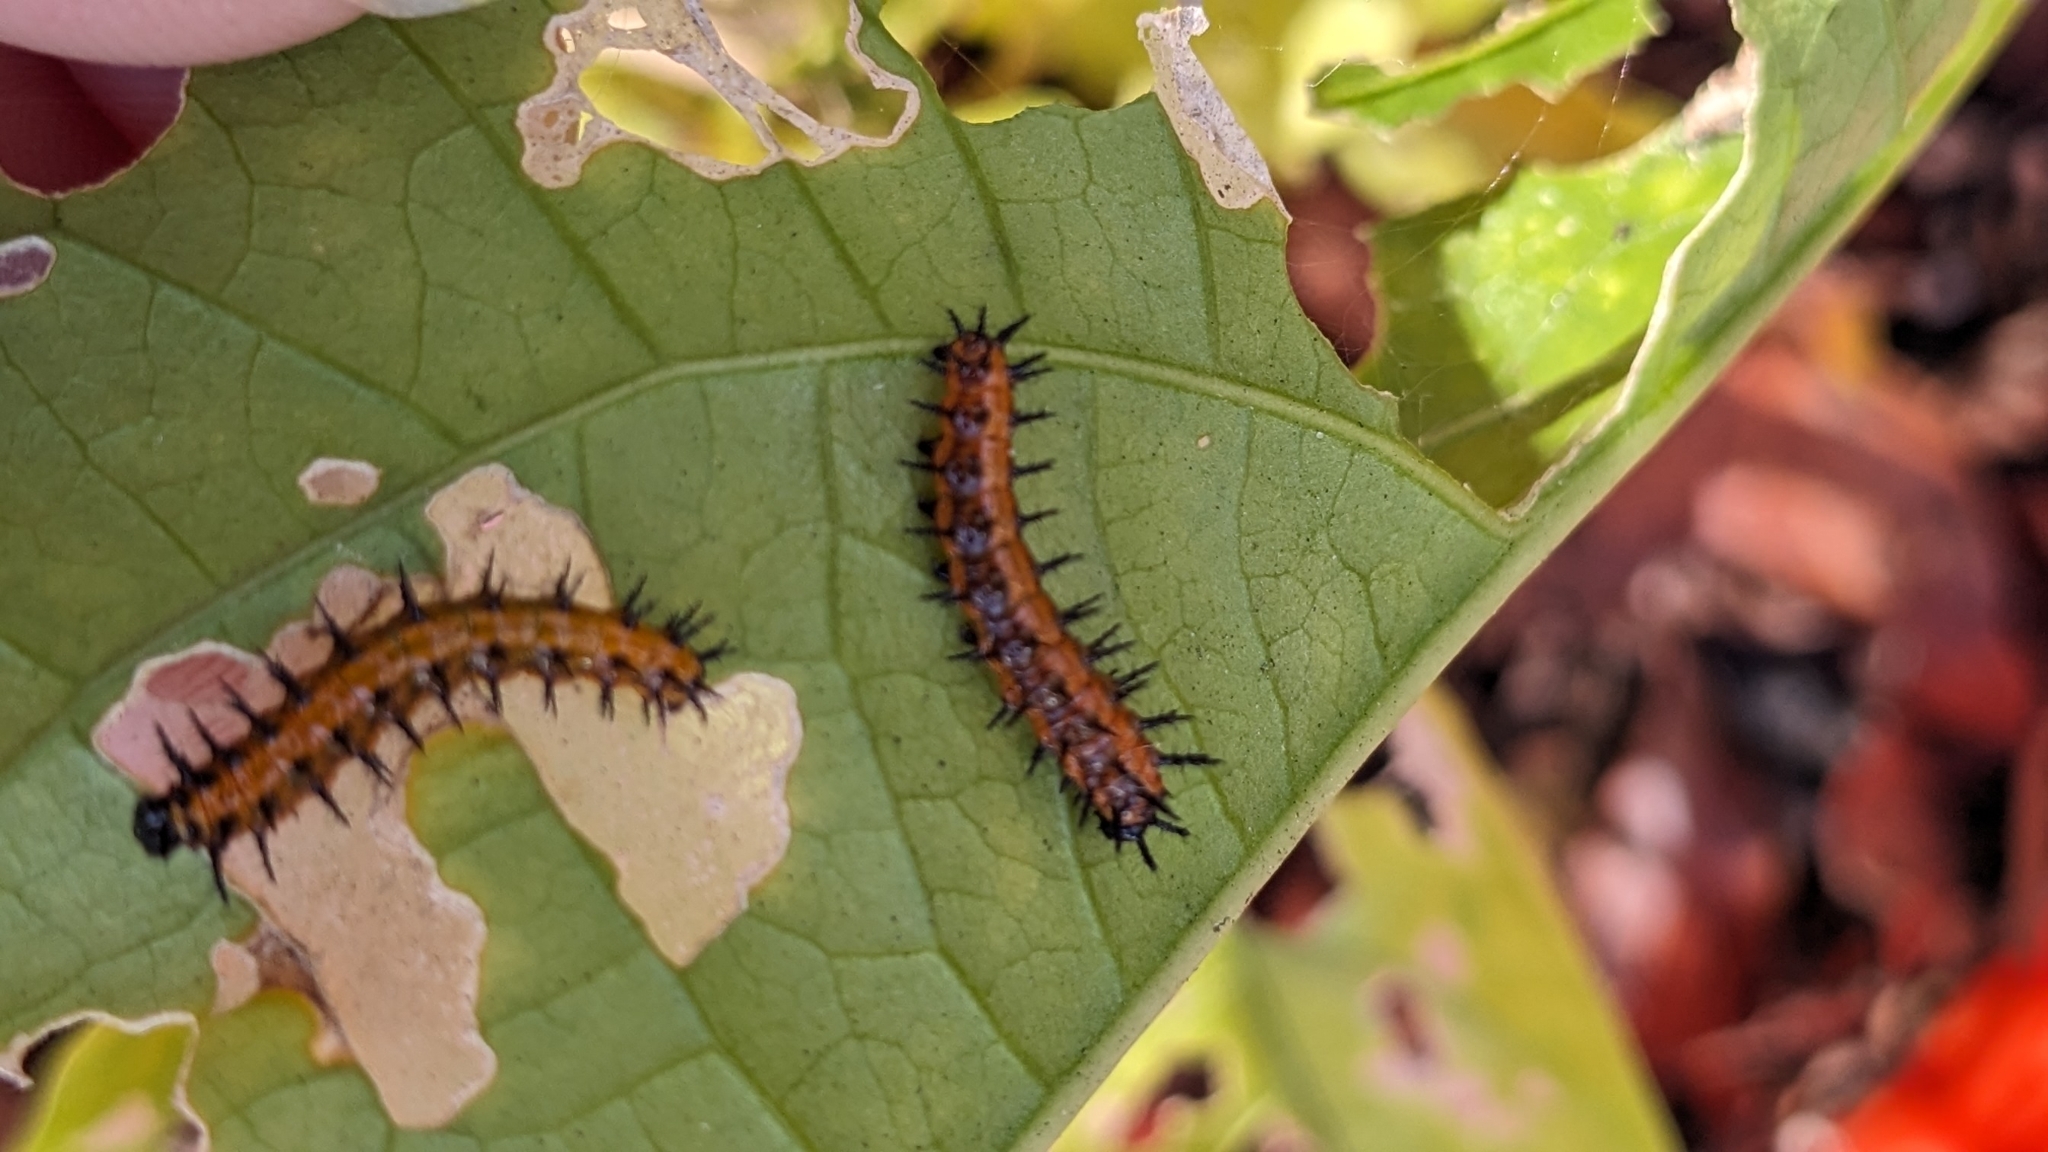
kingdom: Animalia
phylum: Arthropoda
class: Insecta
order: Lepidoptera
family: Nymphalidae
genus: Dione
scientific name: Dione vanillae
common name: Gulf fritillary
